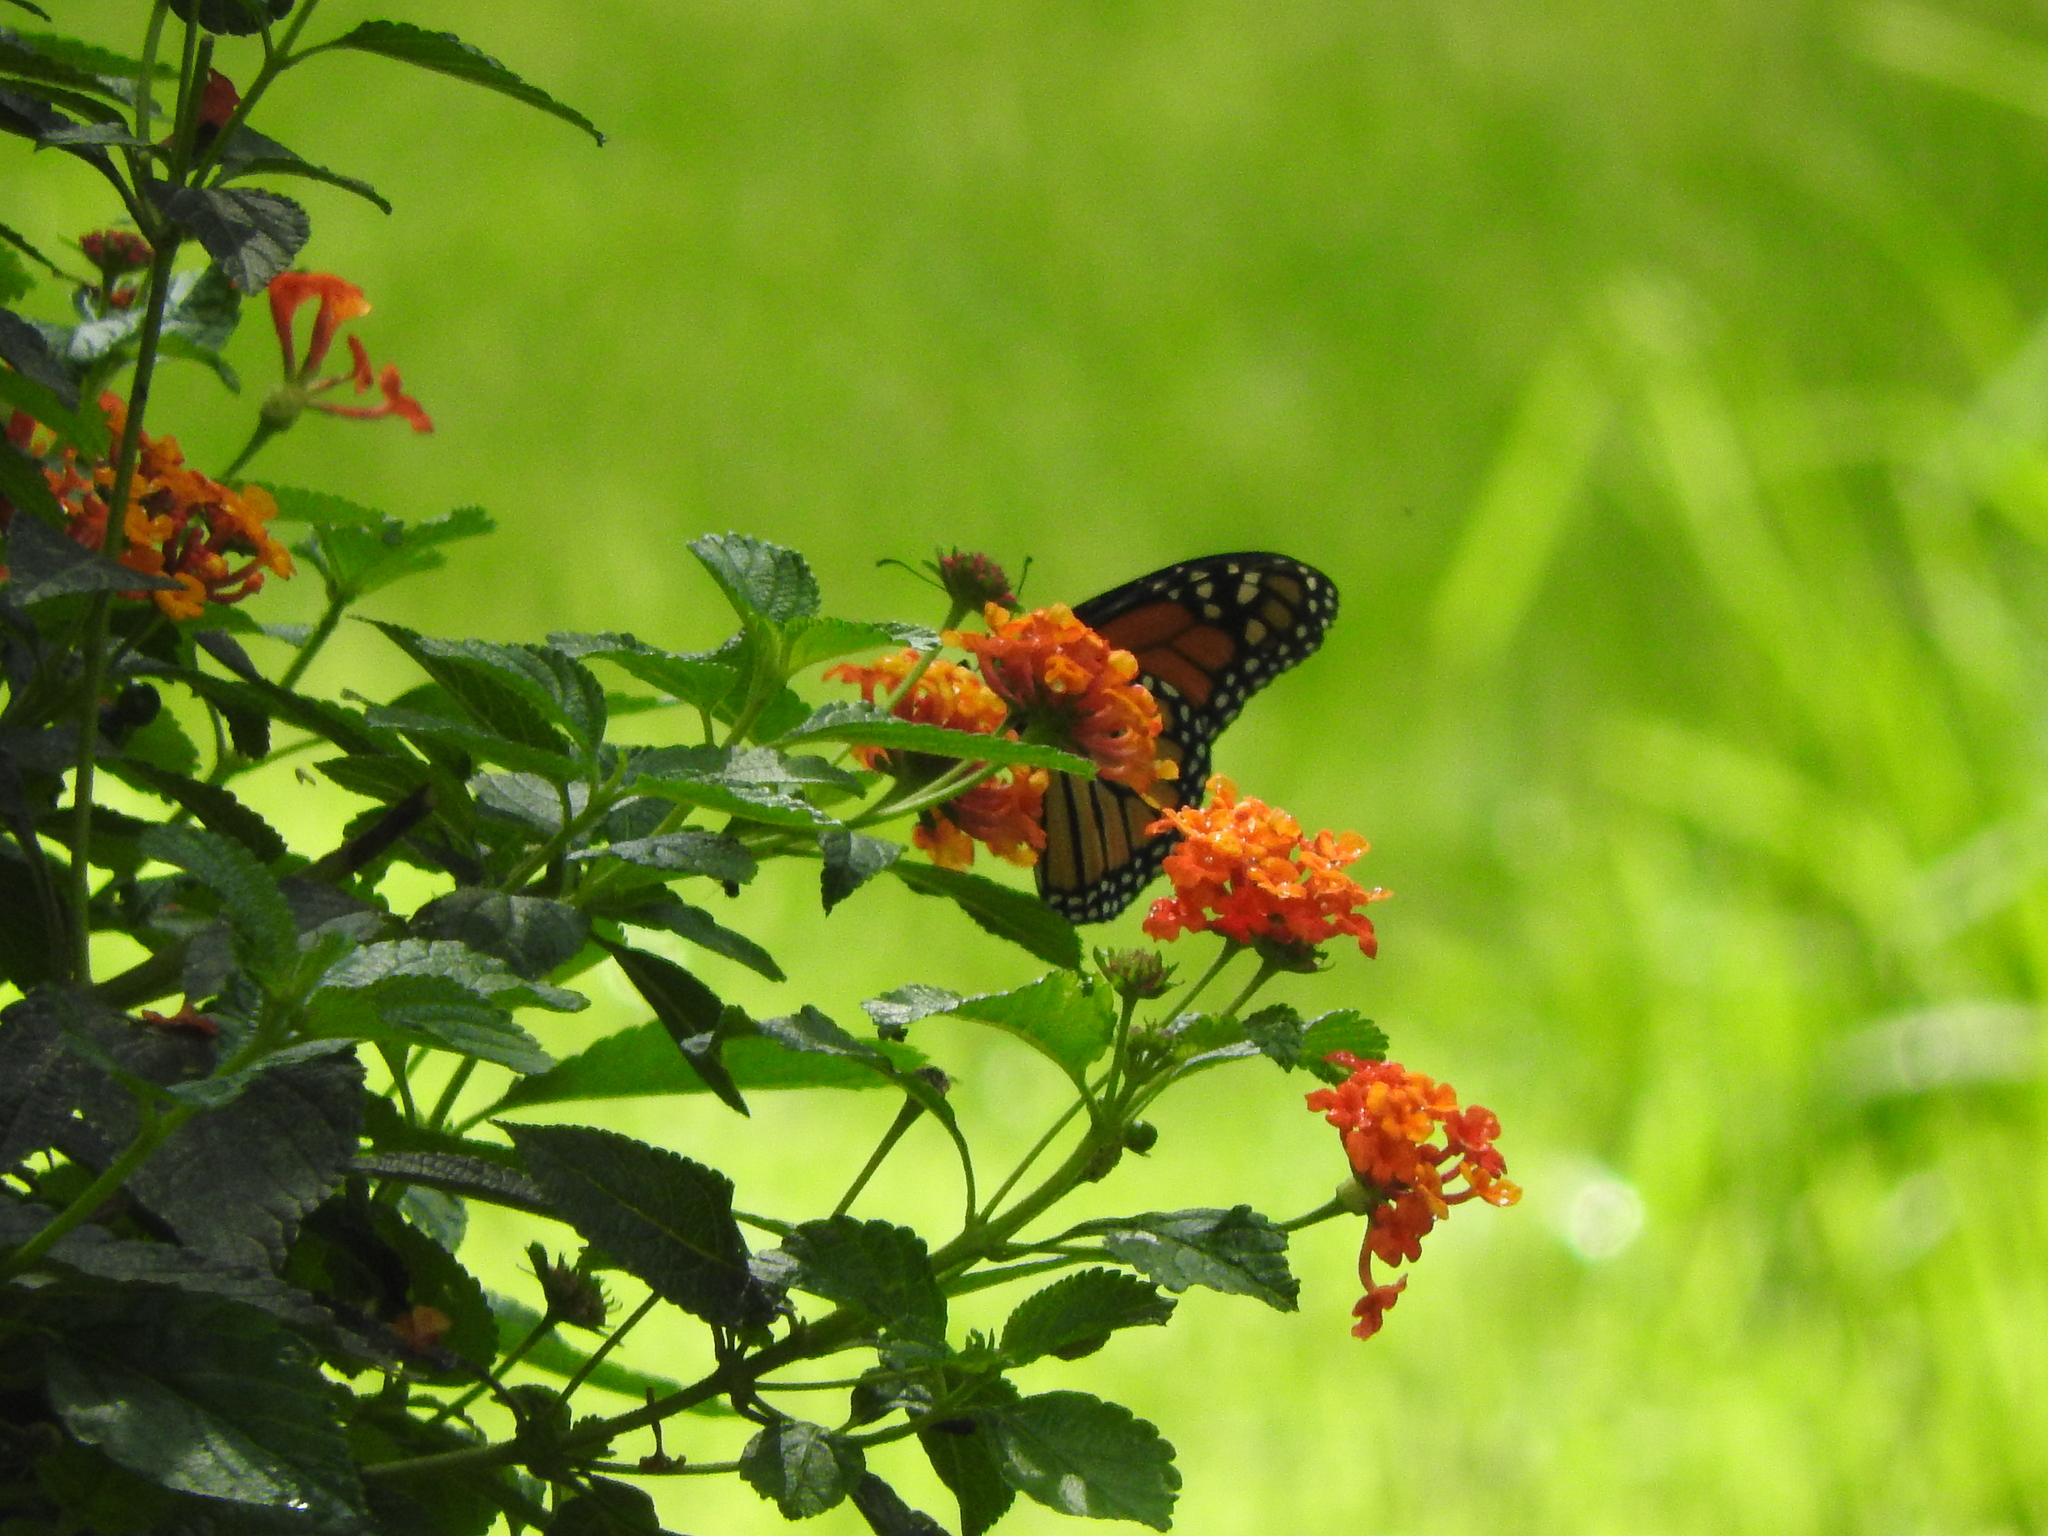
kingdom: Animalia
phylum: Arthropoda
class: Insecta
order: Lepidoptera
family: Nymphalidae
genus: Danaus
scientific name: Danaus plexippus
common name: Monarch
